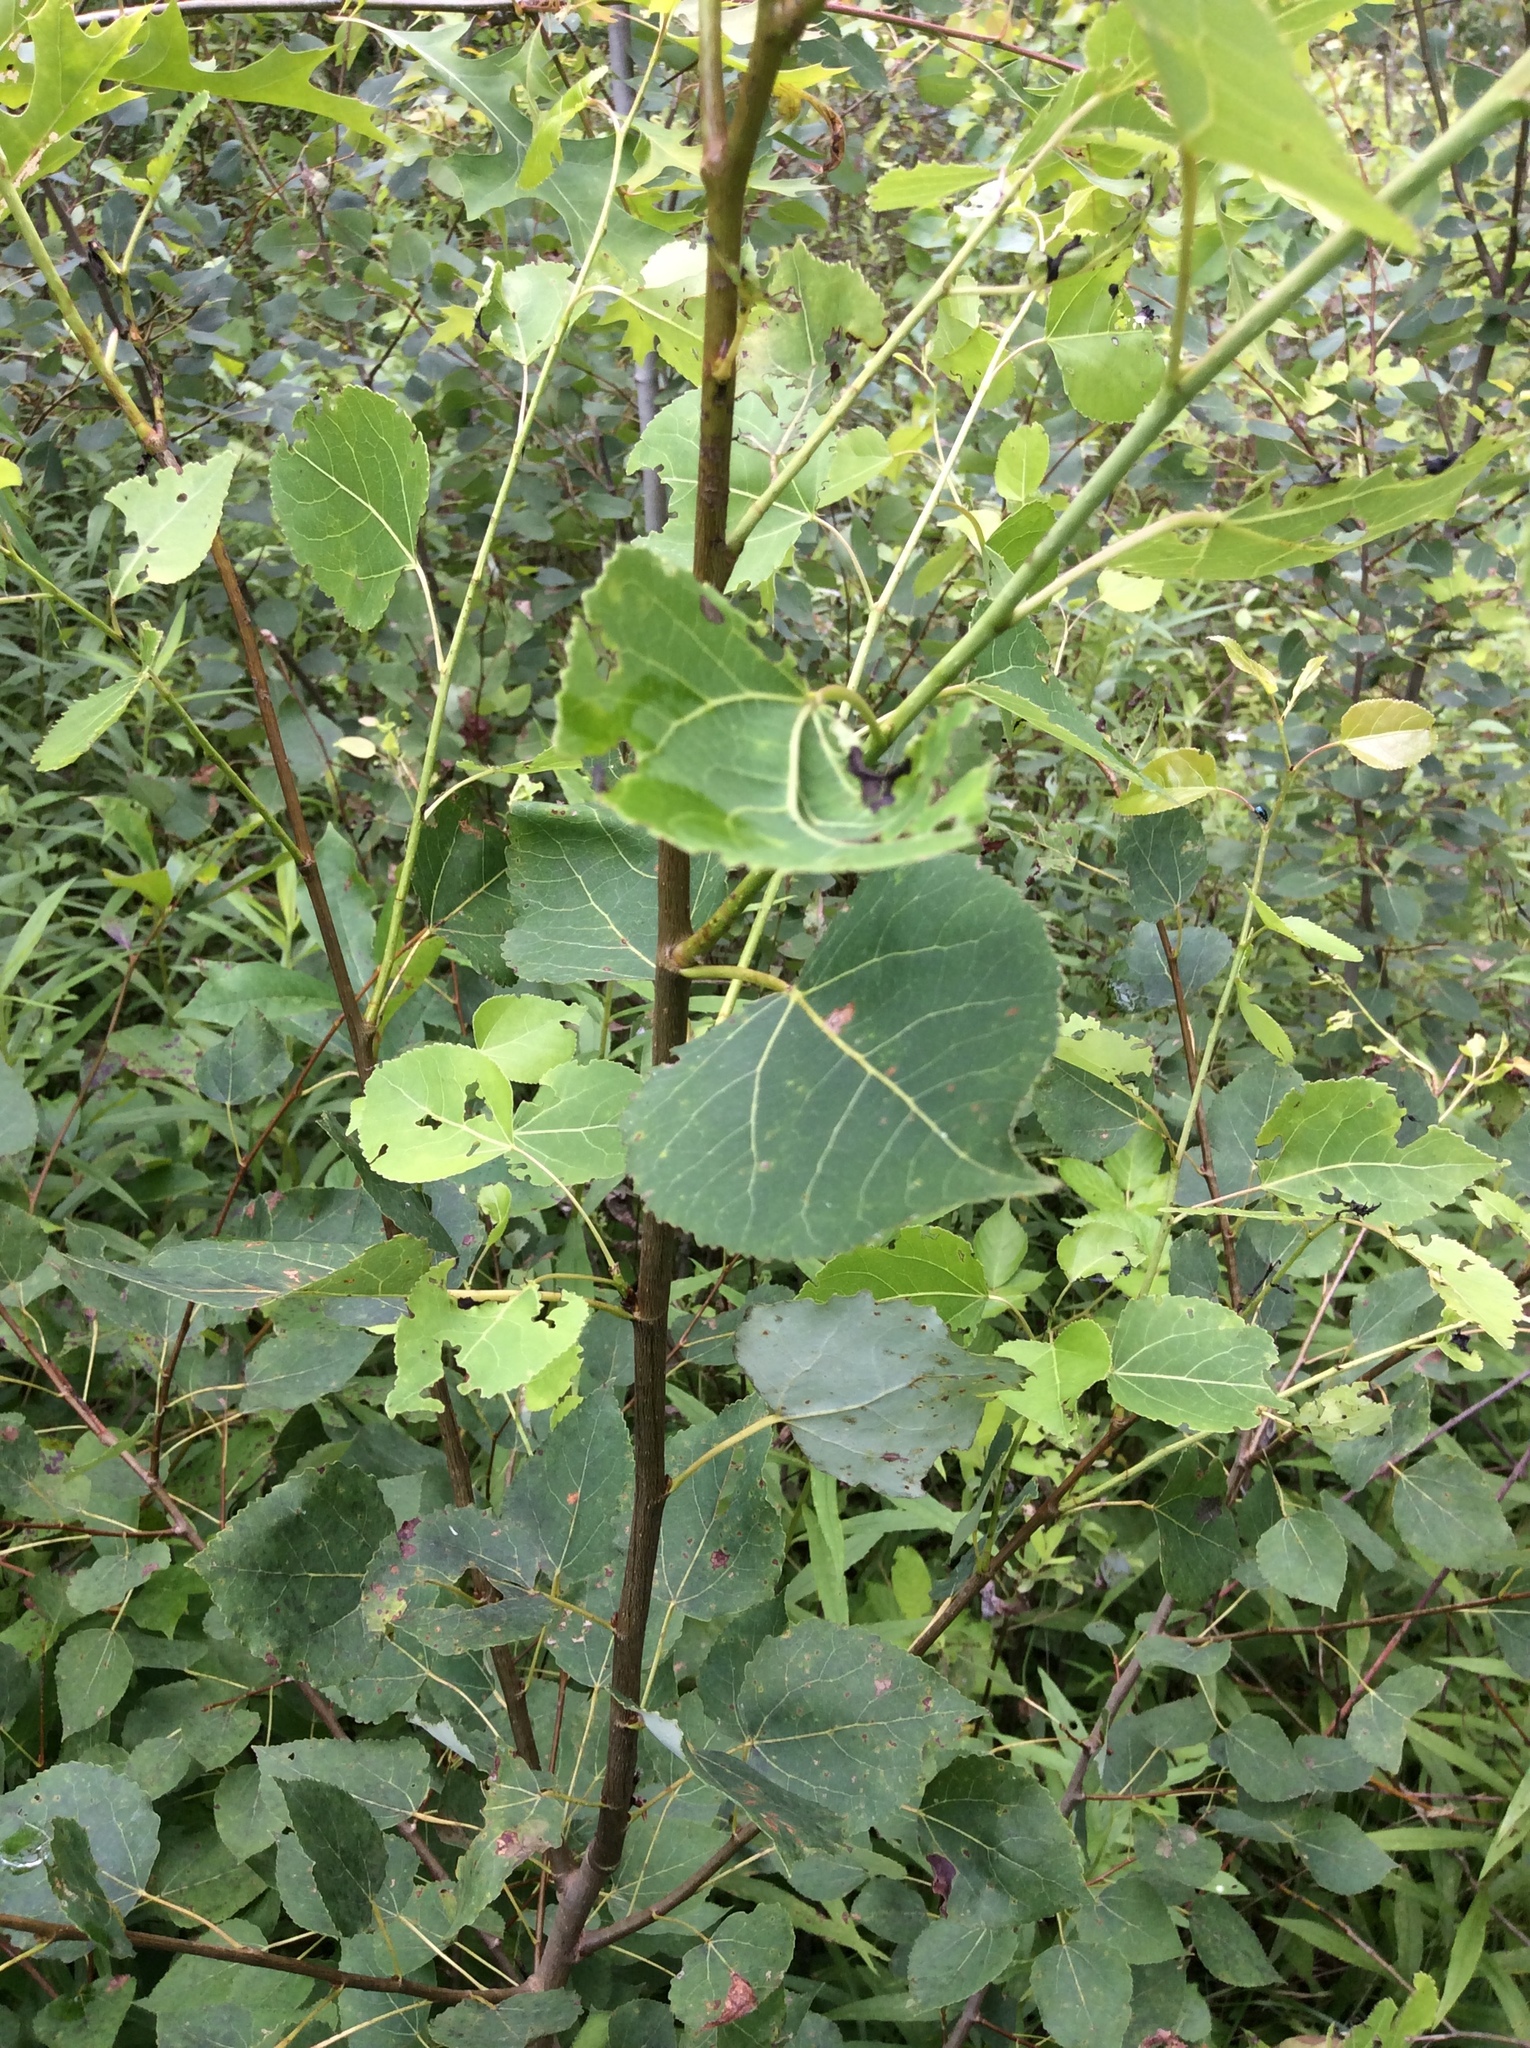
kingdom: Plantae
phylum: Tracheophyta
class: Magnoliopsida
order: Malpighiales
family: Salicaceae
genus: Populus
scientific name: Populus tremuloides
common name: Quaking aspen
